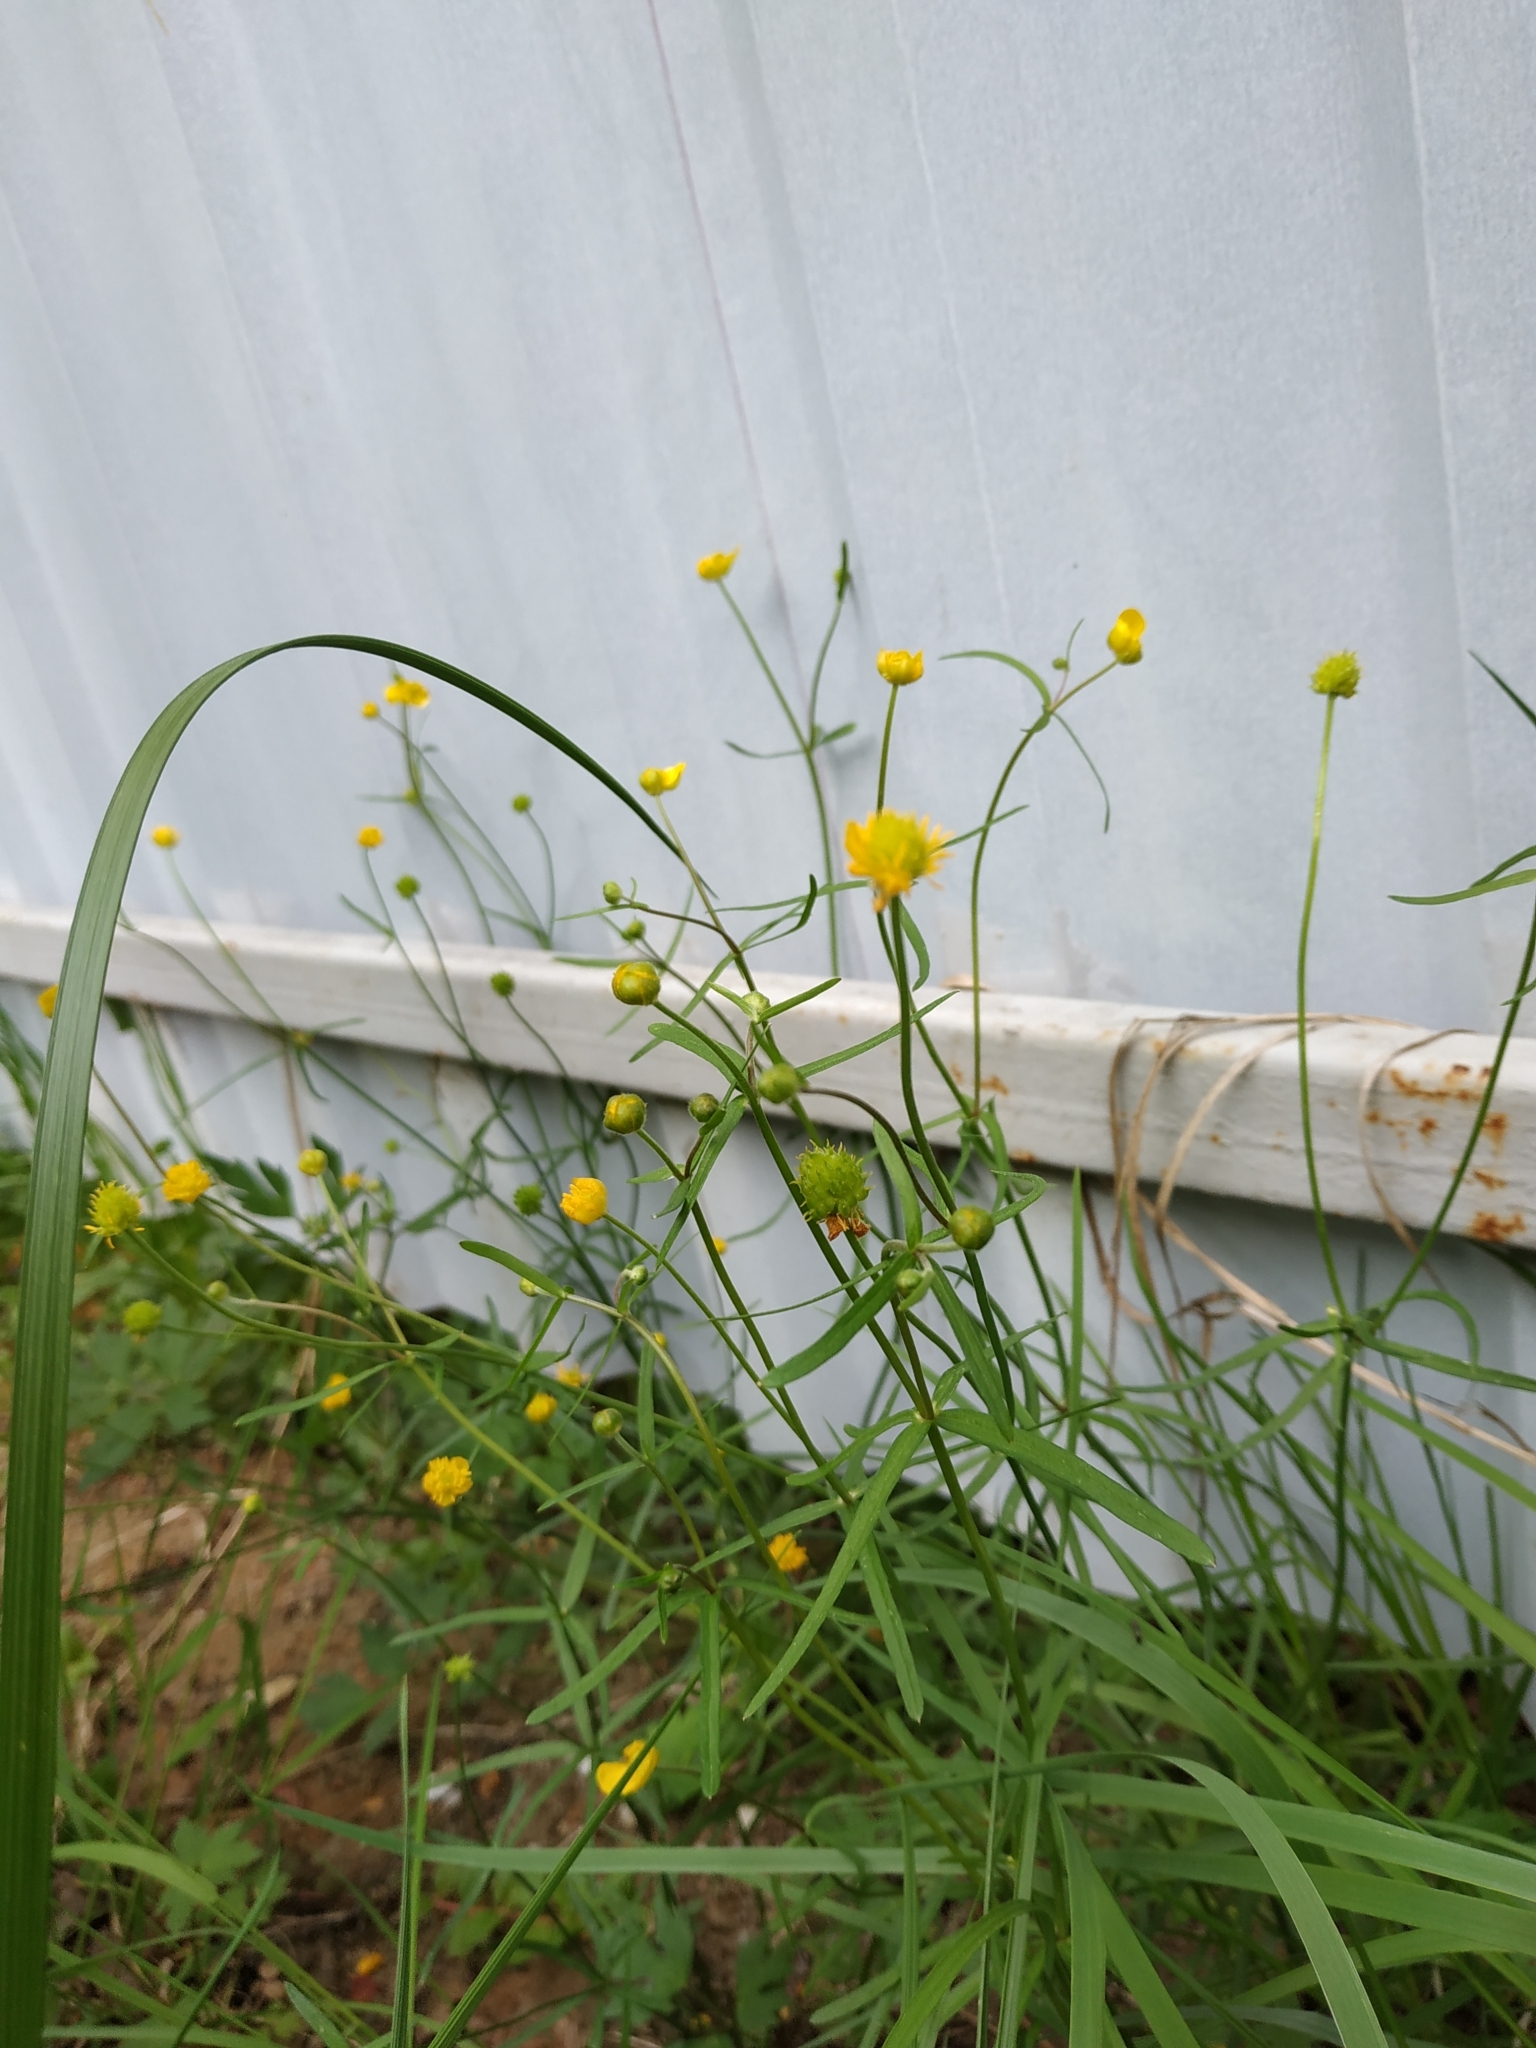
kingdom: Plantae
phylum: Tracheophyta
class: Magnoliopsida
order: Ranunculales
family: Ranunculaceae
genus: Ranunculus
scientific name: Ranunculus auricomus
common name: Goldilocks buttercup
